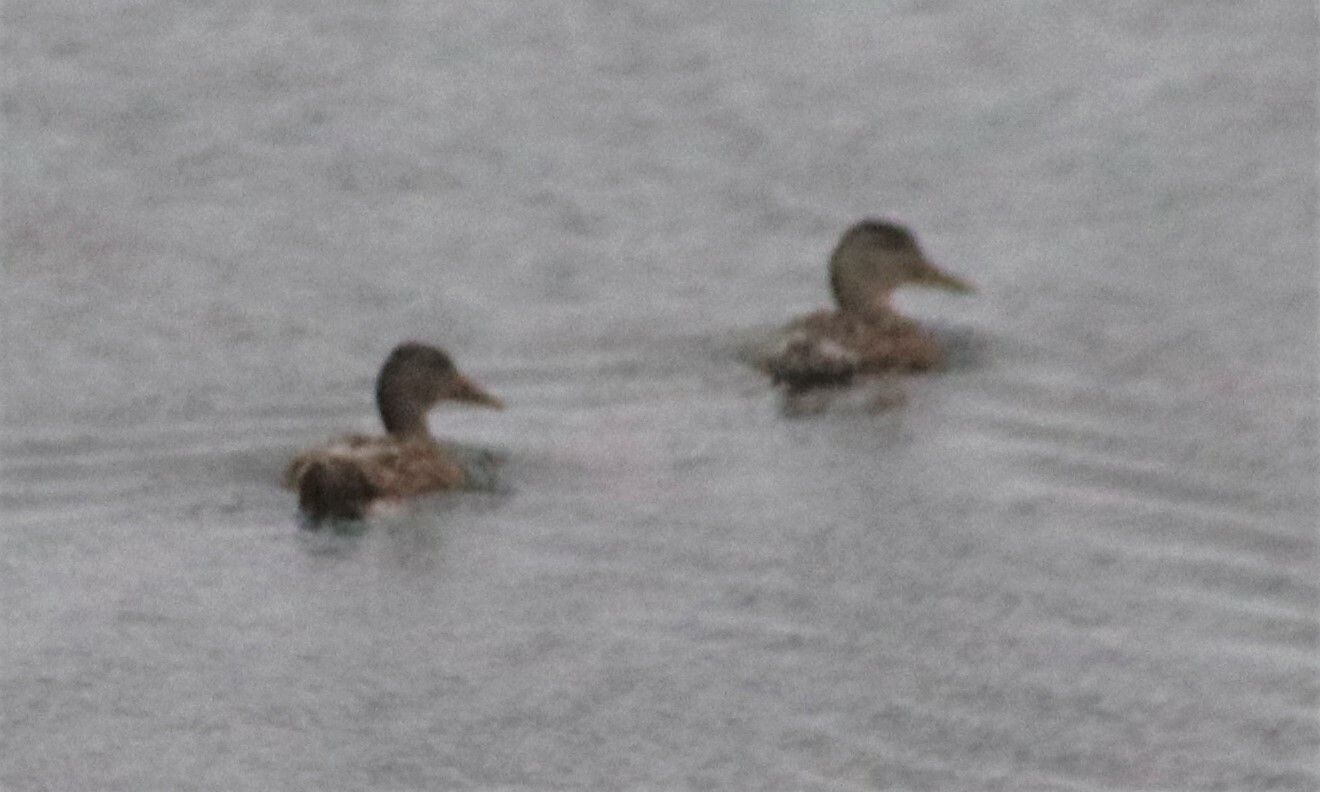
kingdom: Animalia
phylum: Chordata
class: Aves
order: Anseriformes
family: Anatidae
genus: Mareca
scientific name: Mareca strepera
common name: Gadwall
